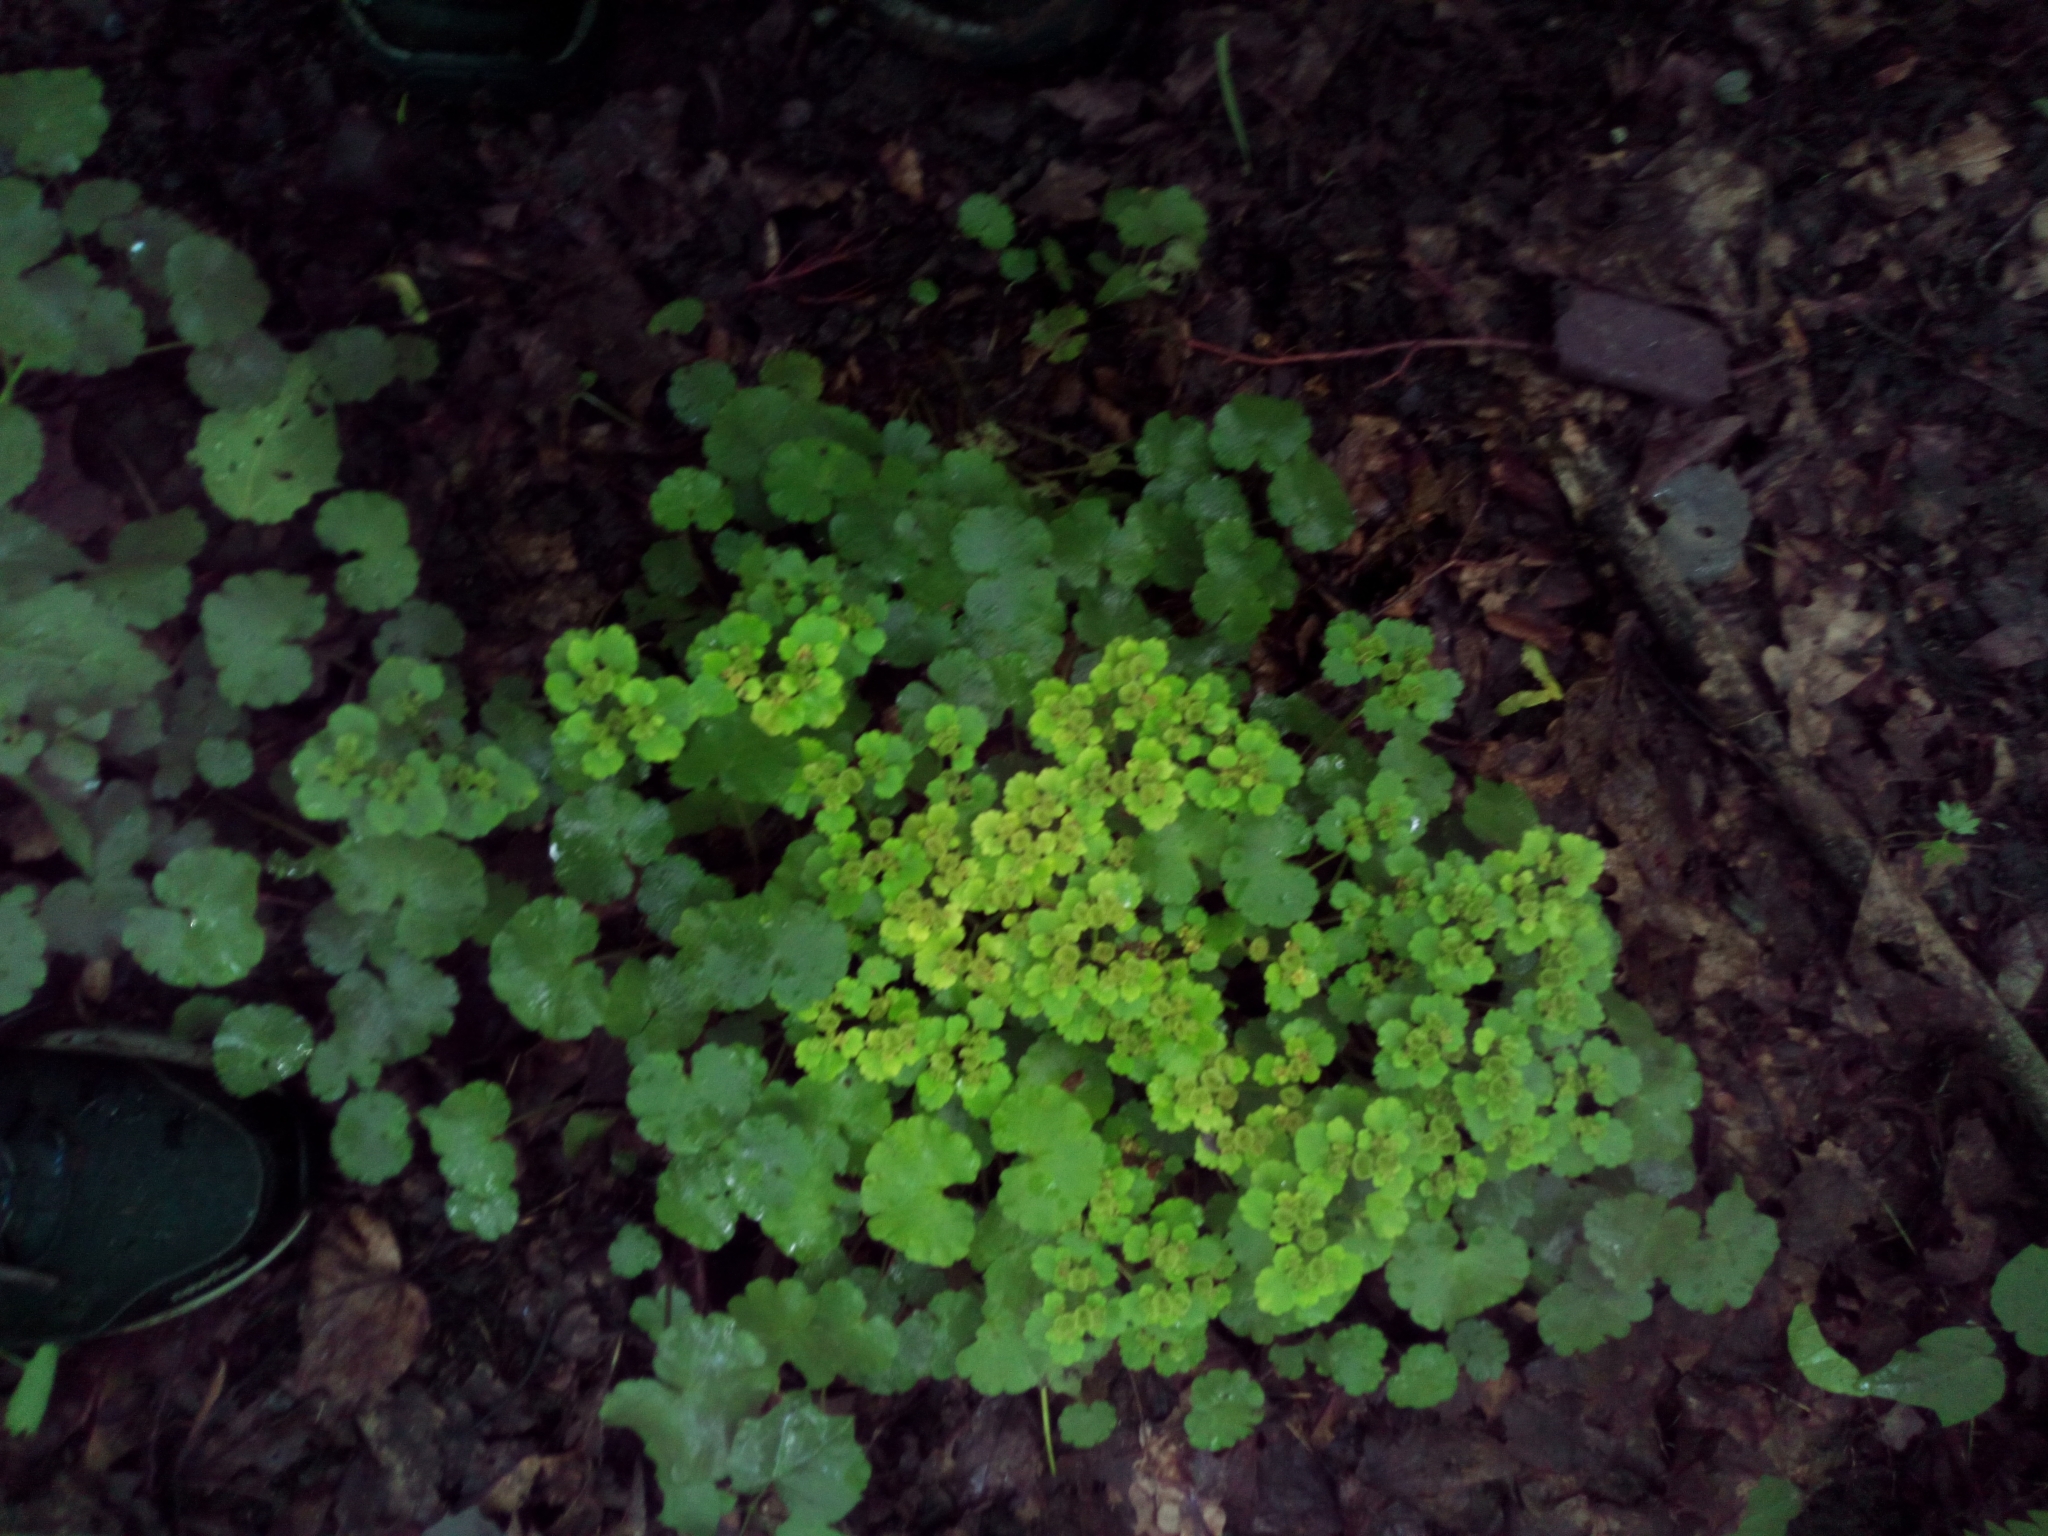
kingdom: Plantae
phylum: Tracheophyta
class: Magnoliopsida
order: Saxifragales
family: Saxifragaceae
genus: Chrysosplenium
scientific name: Chrysosplenium alternifolium
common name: Alternate-leaved golden-saxifrage
